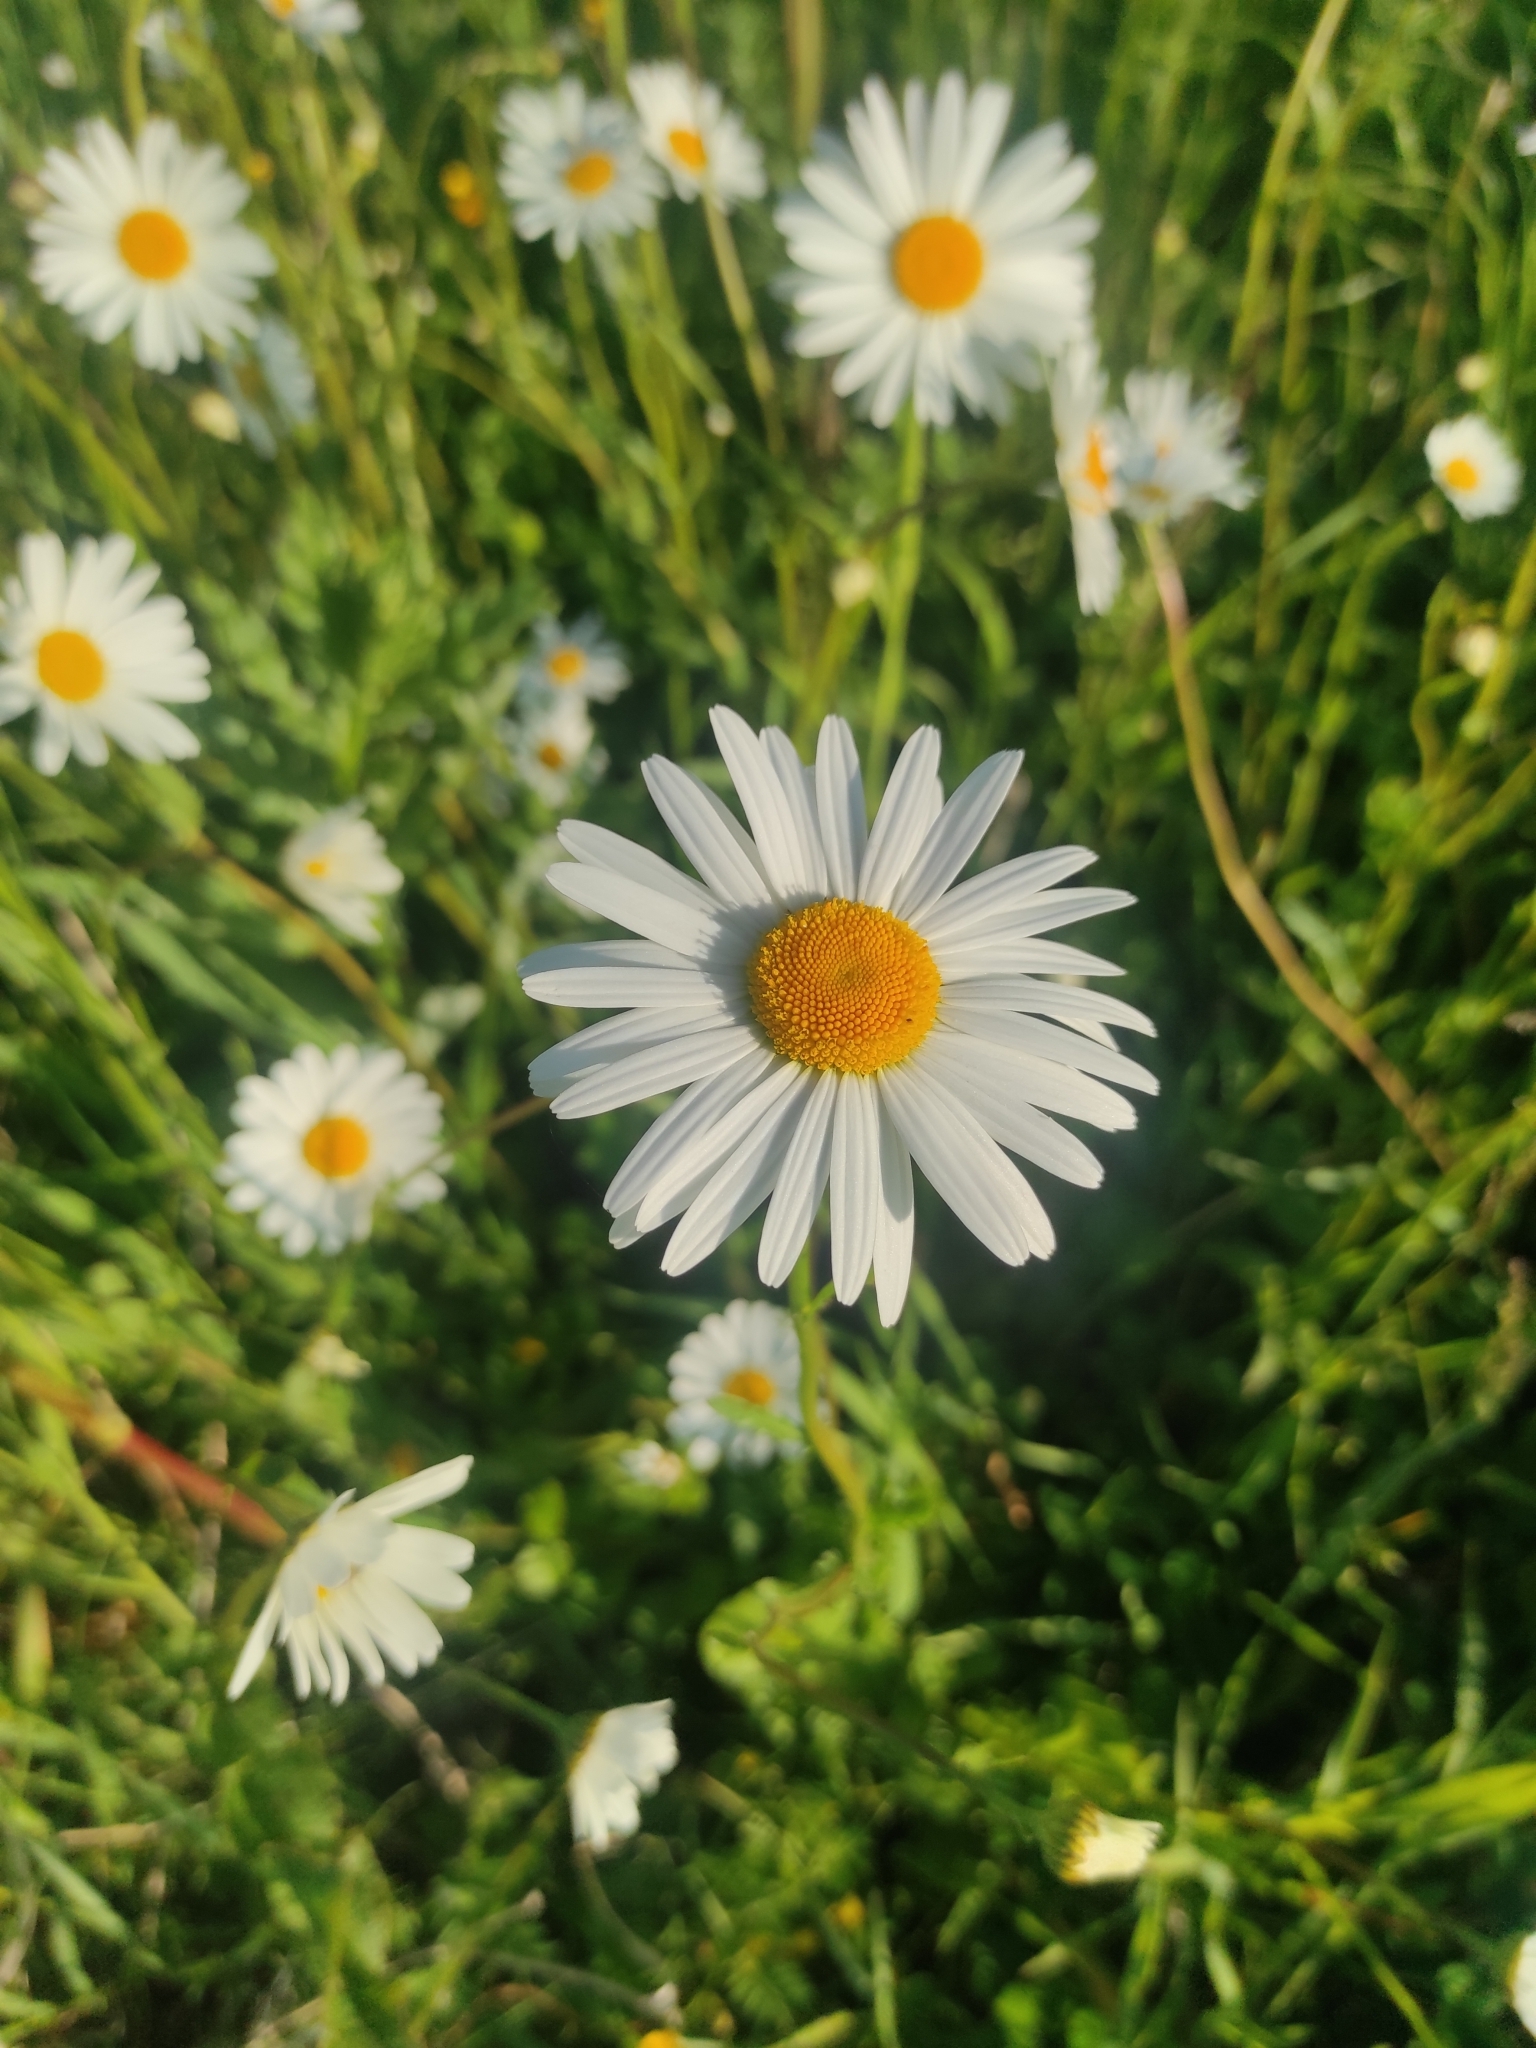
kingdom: Plantae
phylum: Tracheophyta
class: Magnoliopsida
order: Asterales
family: Asteraceae
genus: Leucanthemum
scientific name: Leucanthemum vulgare
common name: Oxeye daisy
